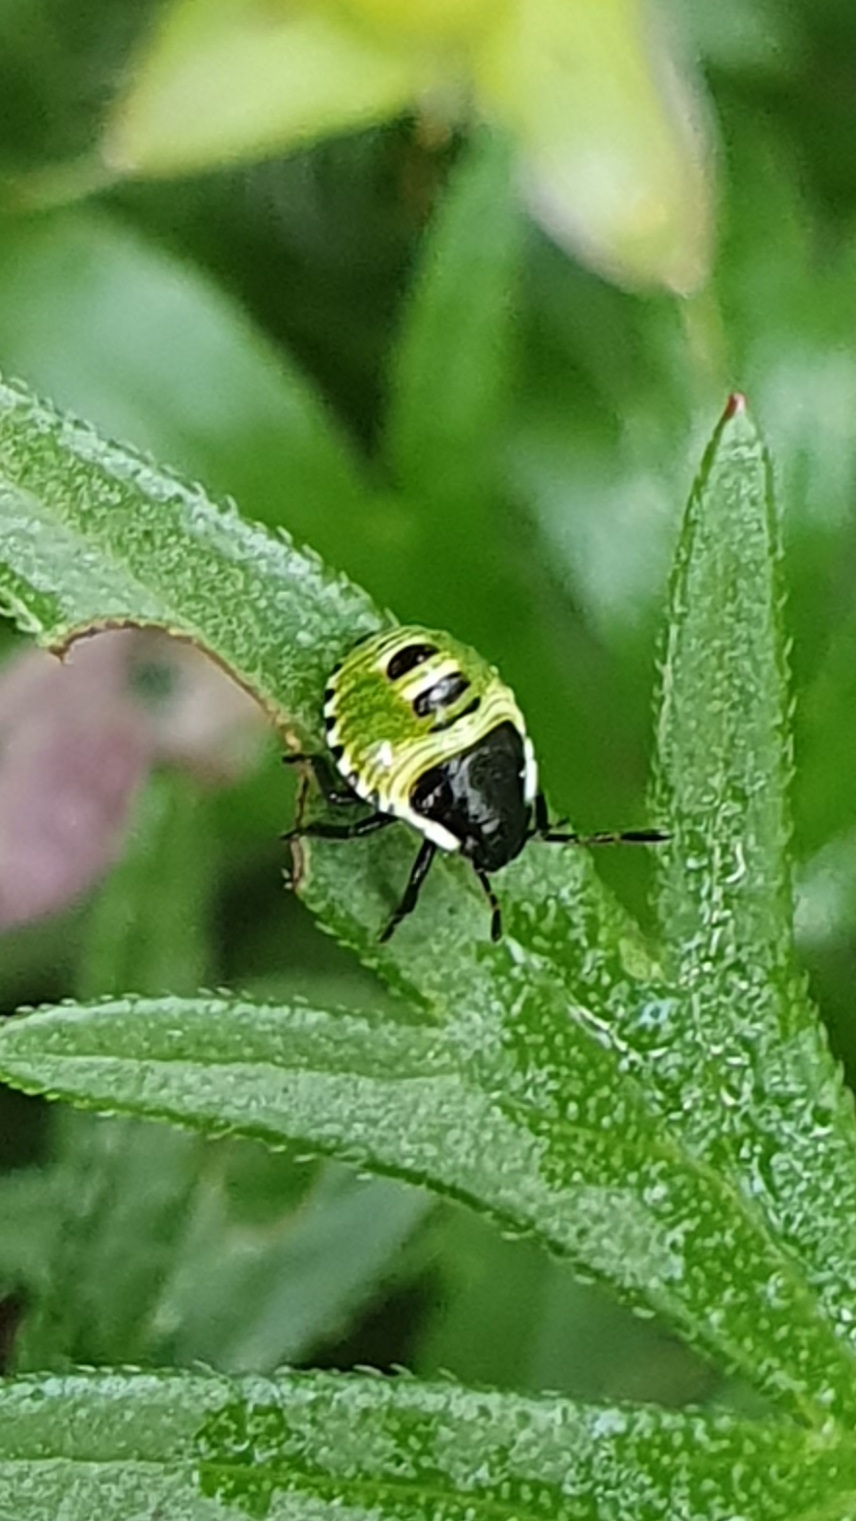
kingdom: Animalia
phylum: Arthropoda
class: Insecta
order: Hemiptera
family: Pentatomidae
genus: Palomena
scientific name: Palomena prasina
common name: Green shieldbug
